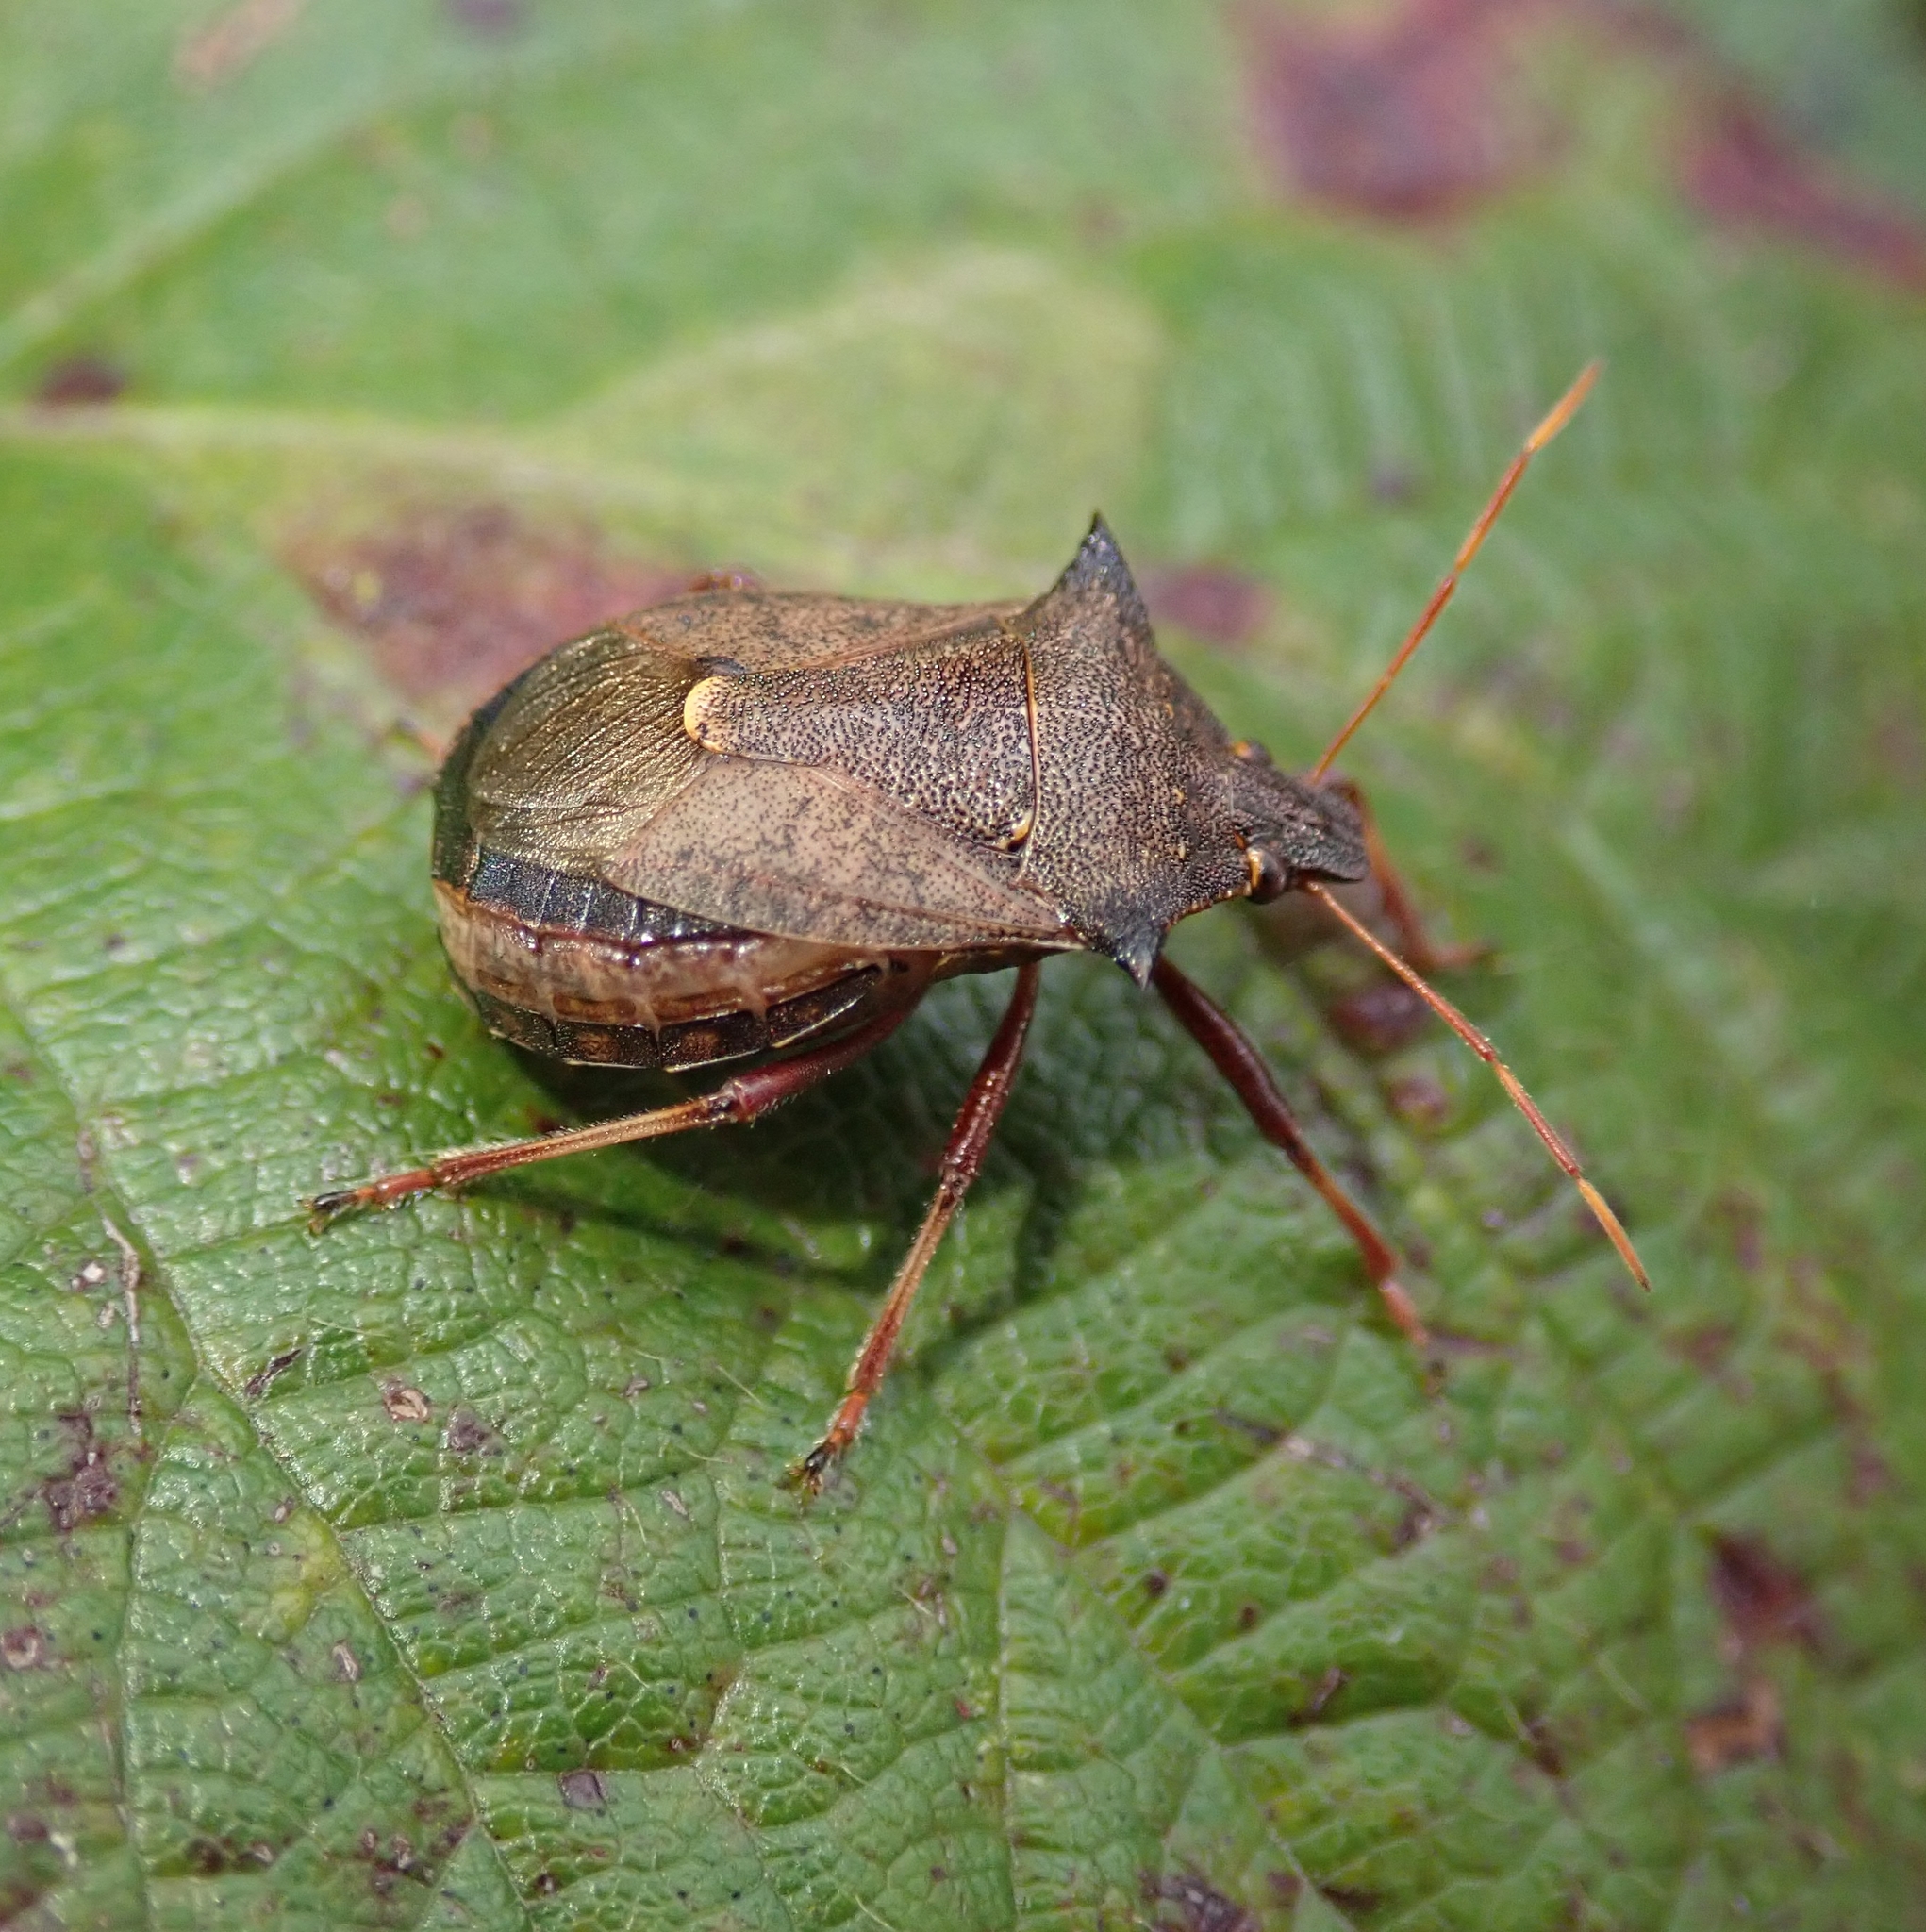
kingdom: Animalia
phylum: Arthropoda
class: Insecta
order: Hemiptera
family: Pentatomidae
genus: Picromerus
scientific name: Picromerus bidens
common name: Spiked shieldbug
